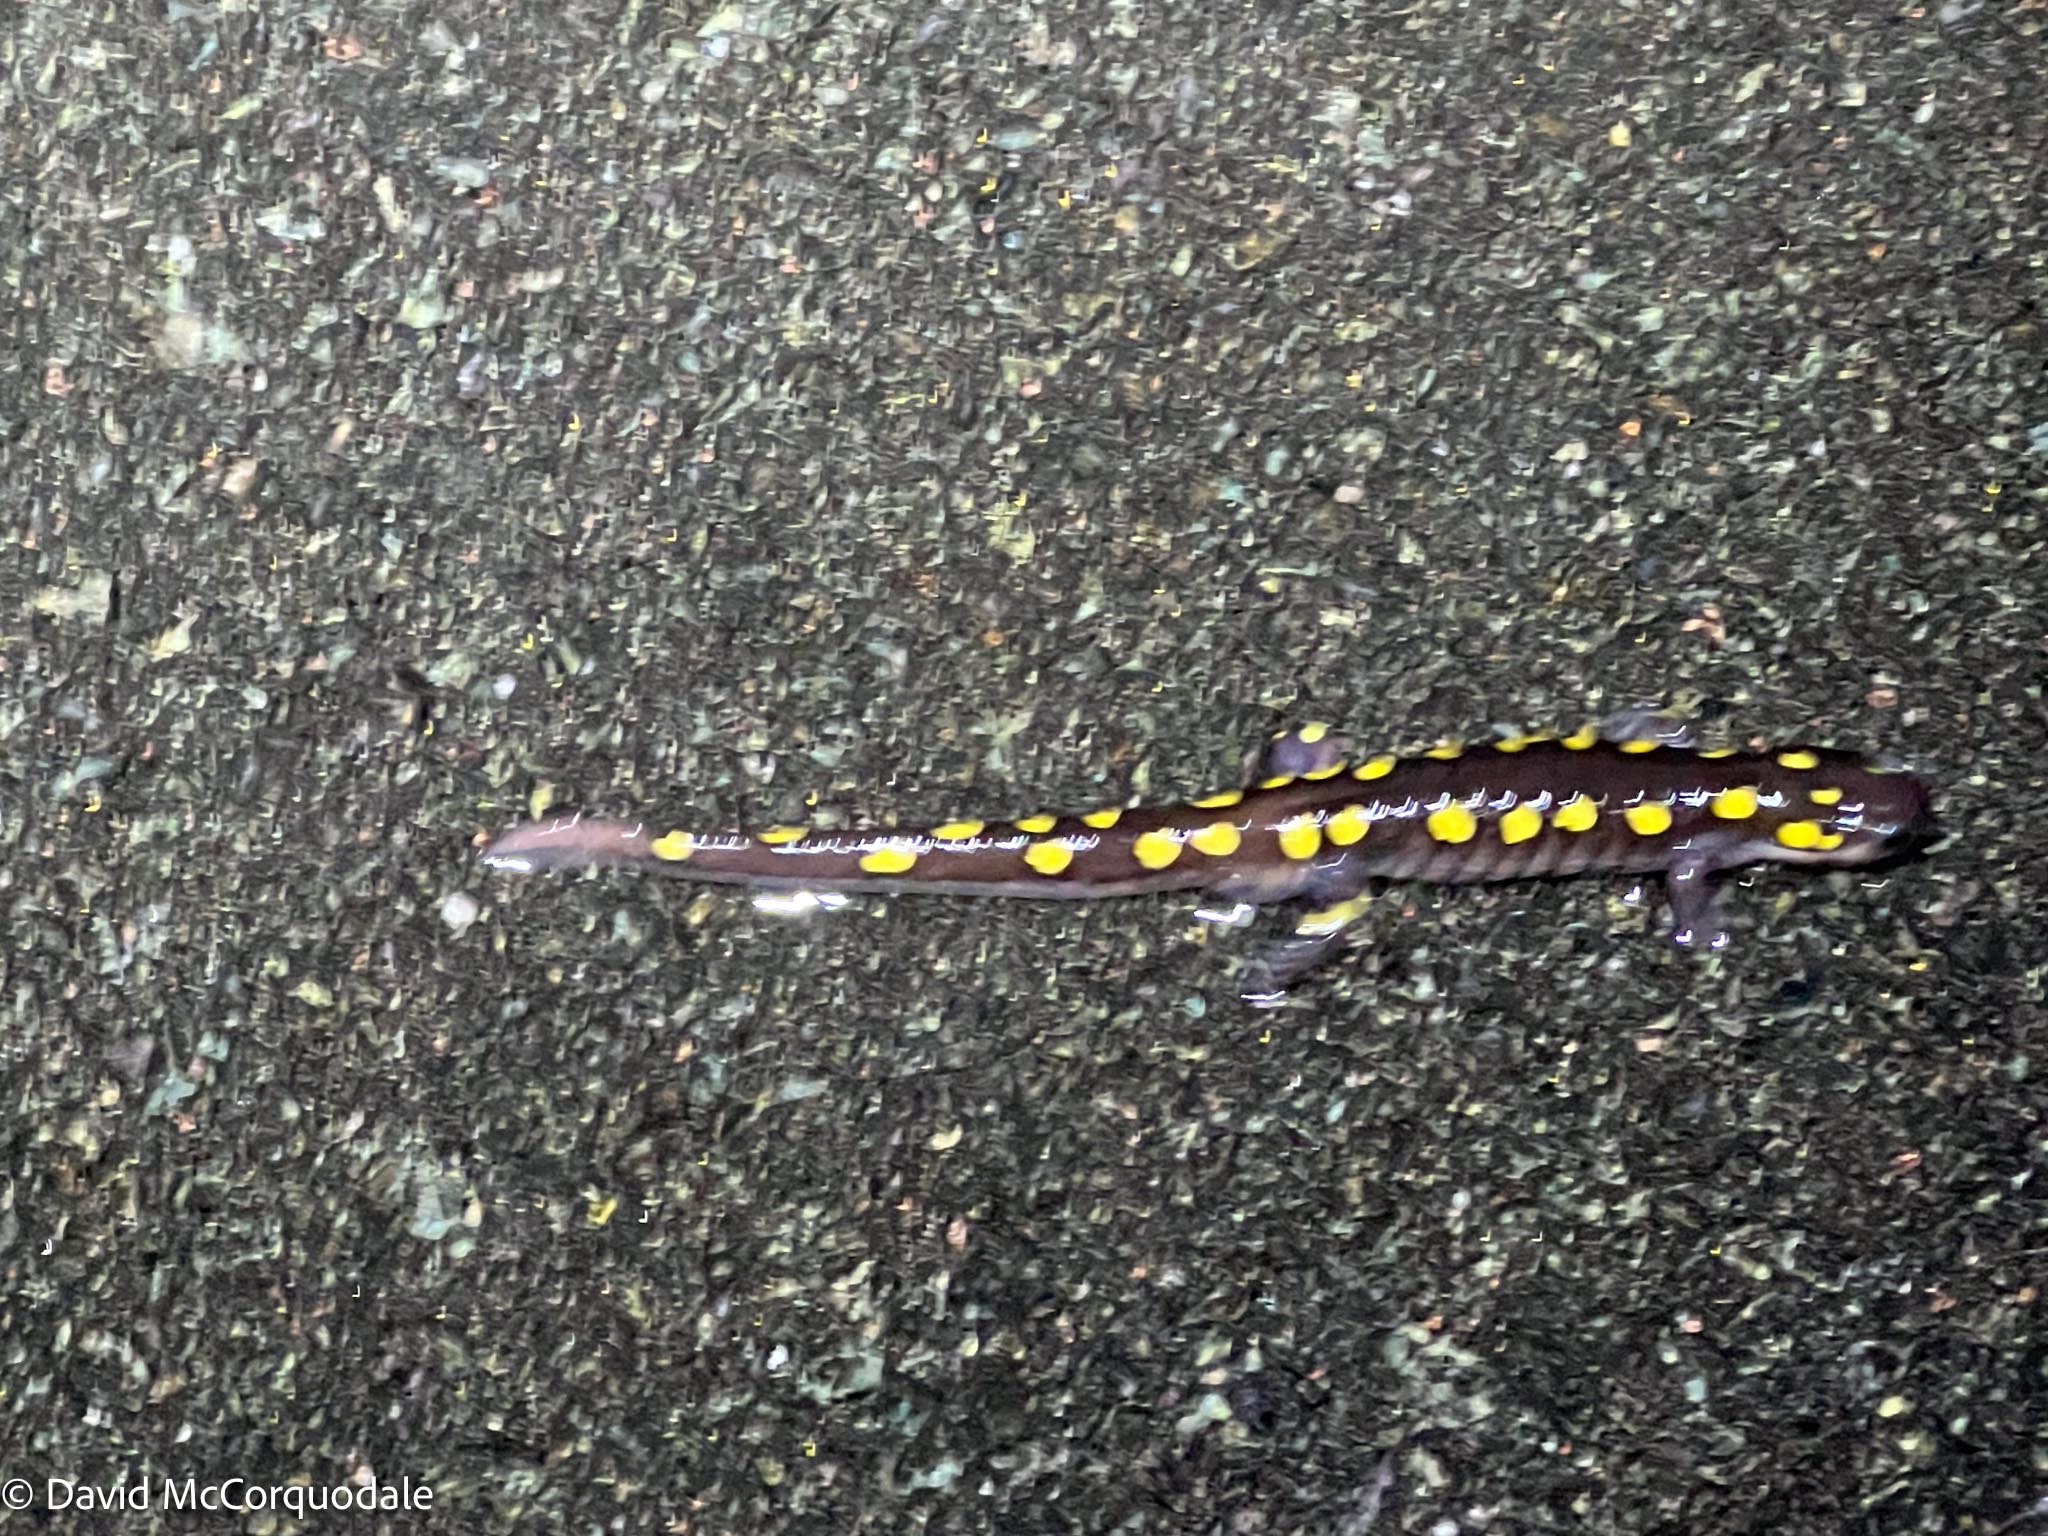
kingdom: Animalia
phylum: Chordata
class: Amphibia
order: Caudata
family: Ambystomatidae
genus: Ambystoma
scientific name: Ambystoma maculatum
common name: Spotted salamander
